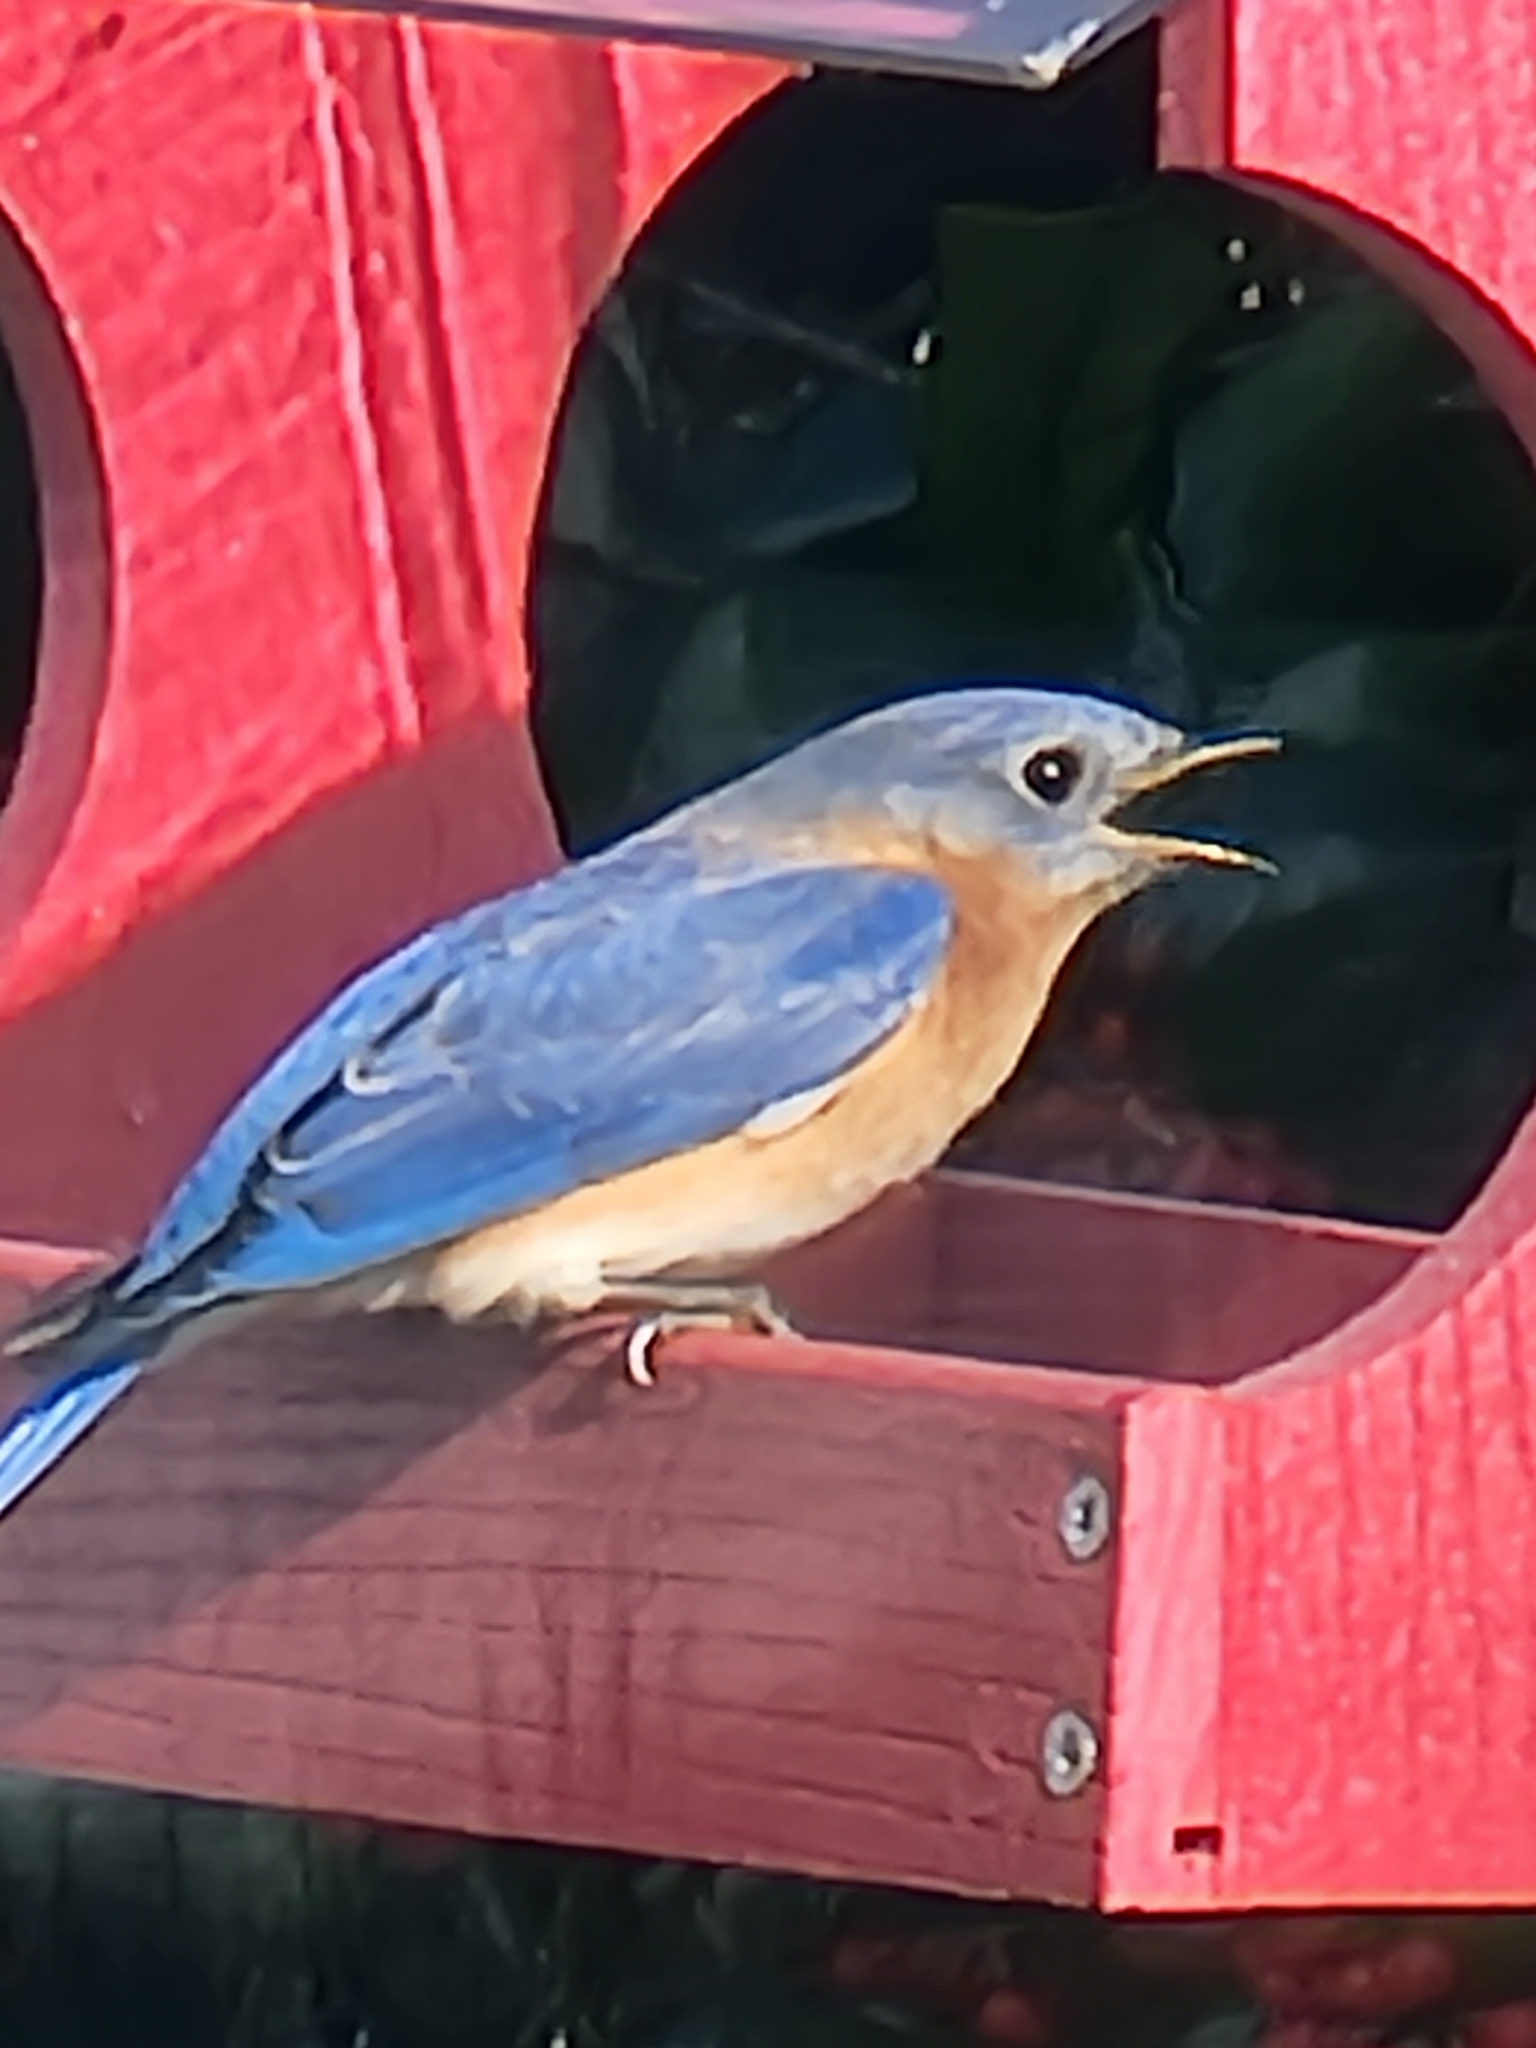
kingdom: Animalia
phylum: Chordata
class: Aves
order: Passeriformes
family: Turdidae
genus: Sialia
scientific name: Sialia sialis
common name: Eastern bluebird
